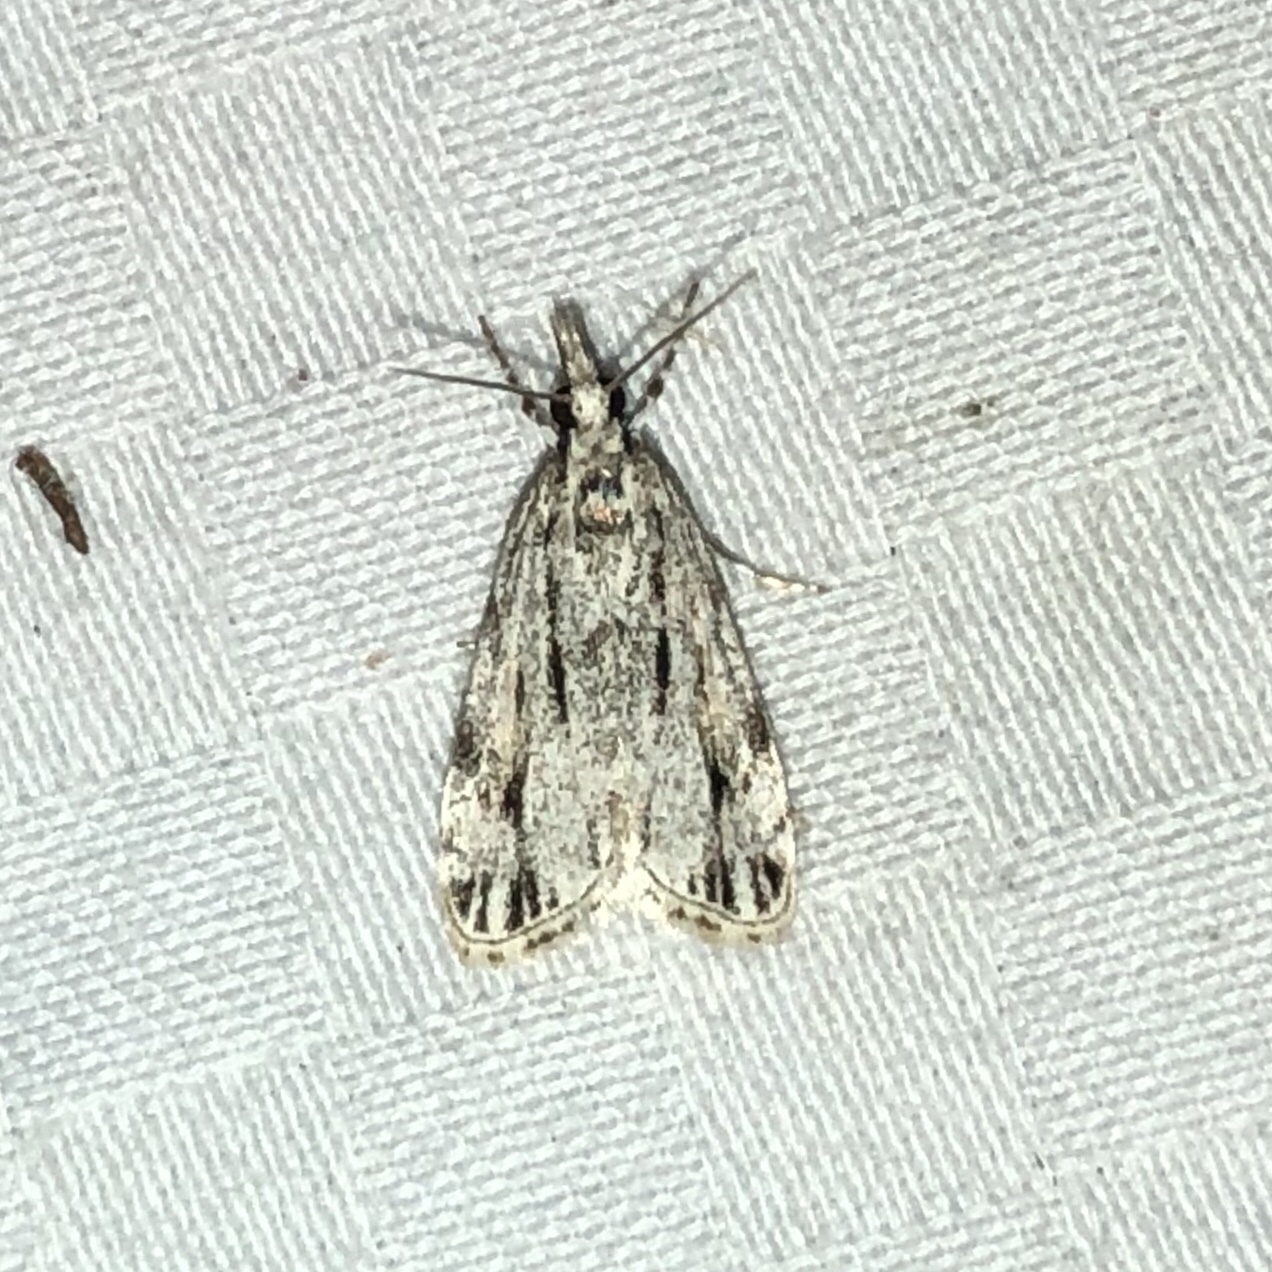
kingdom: Animalia
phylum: Arthropoda
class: Insecta
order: Lepidoptera
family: Crambidae
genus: Eudonia
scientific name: Eudonia strigalis
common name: Striped eudonia moth
